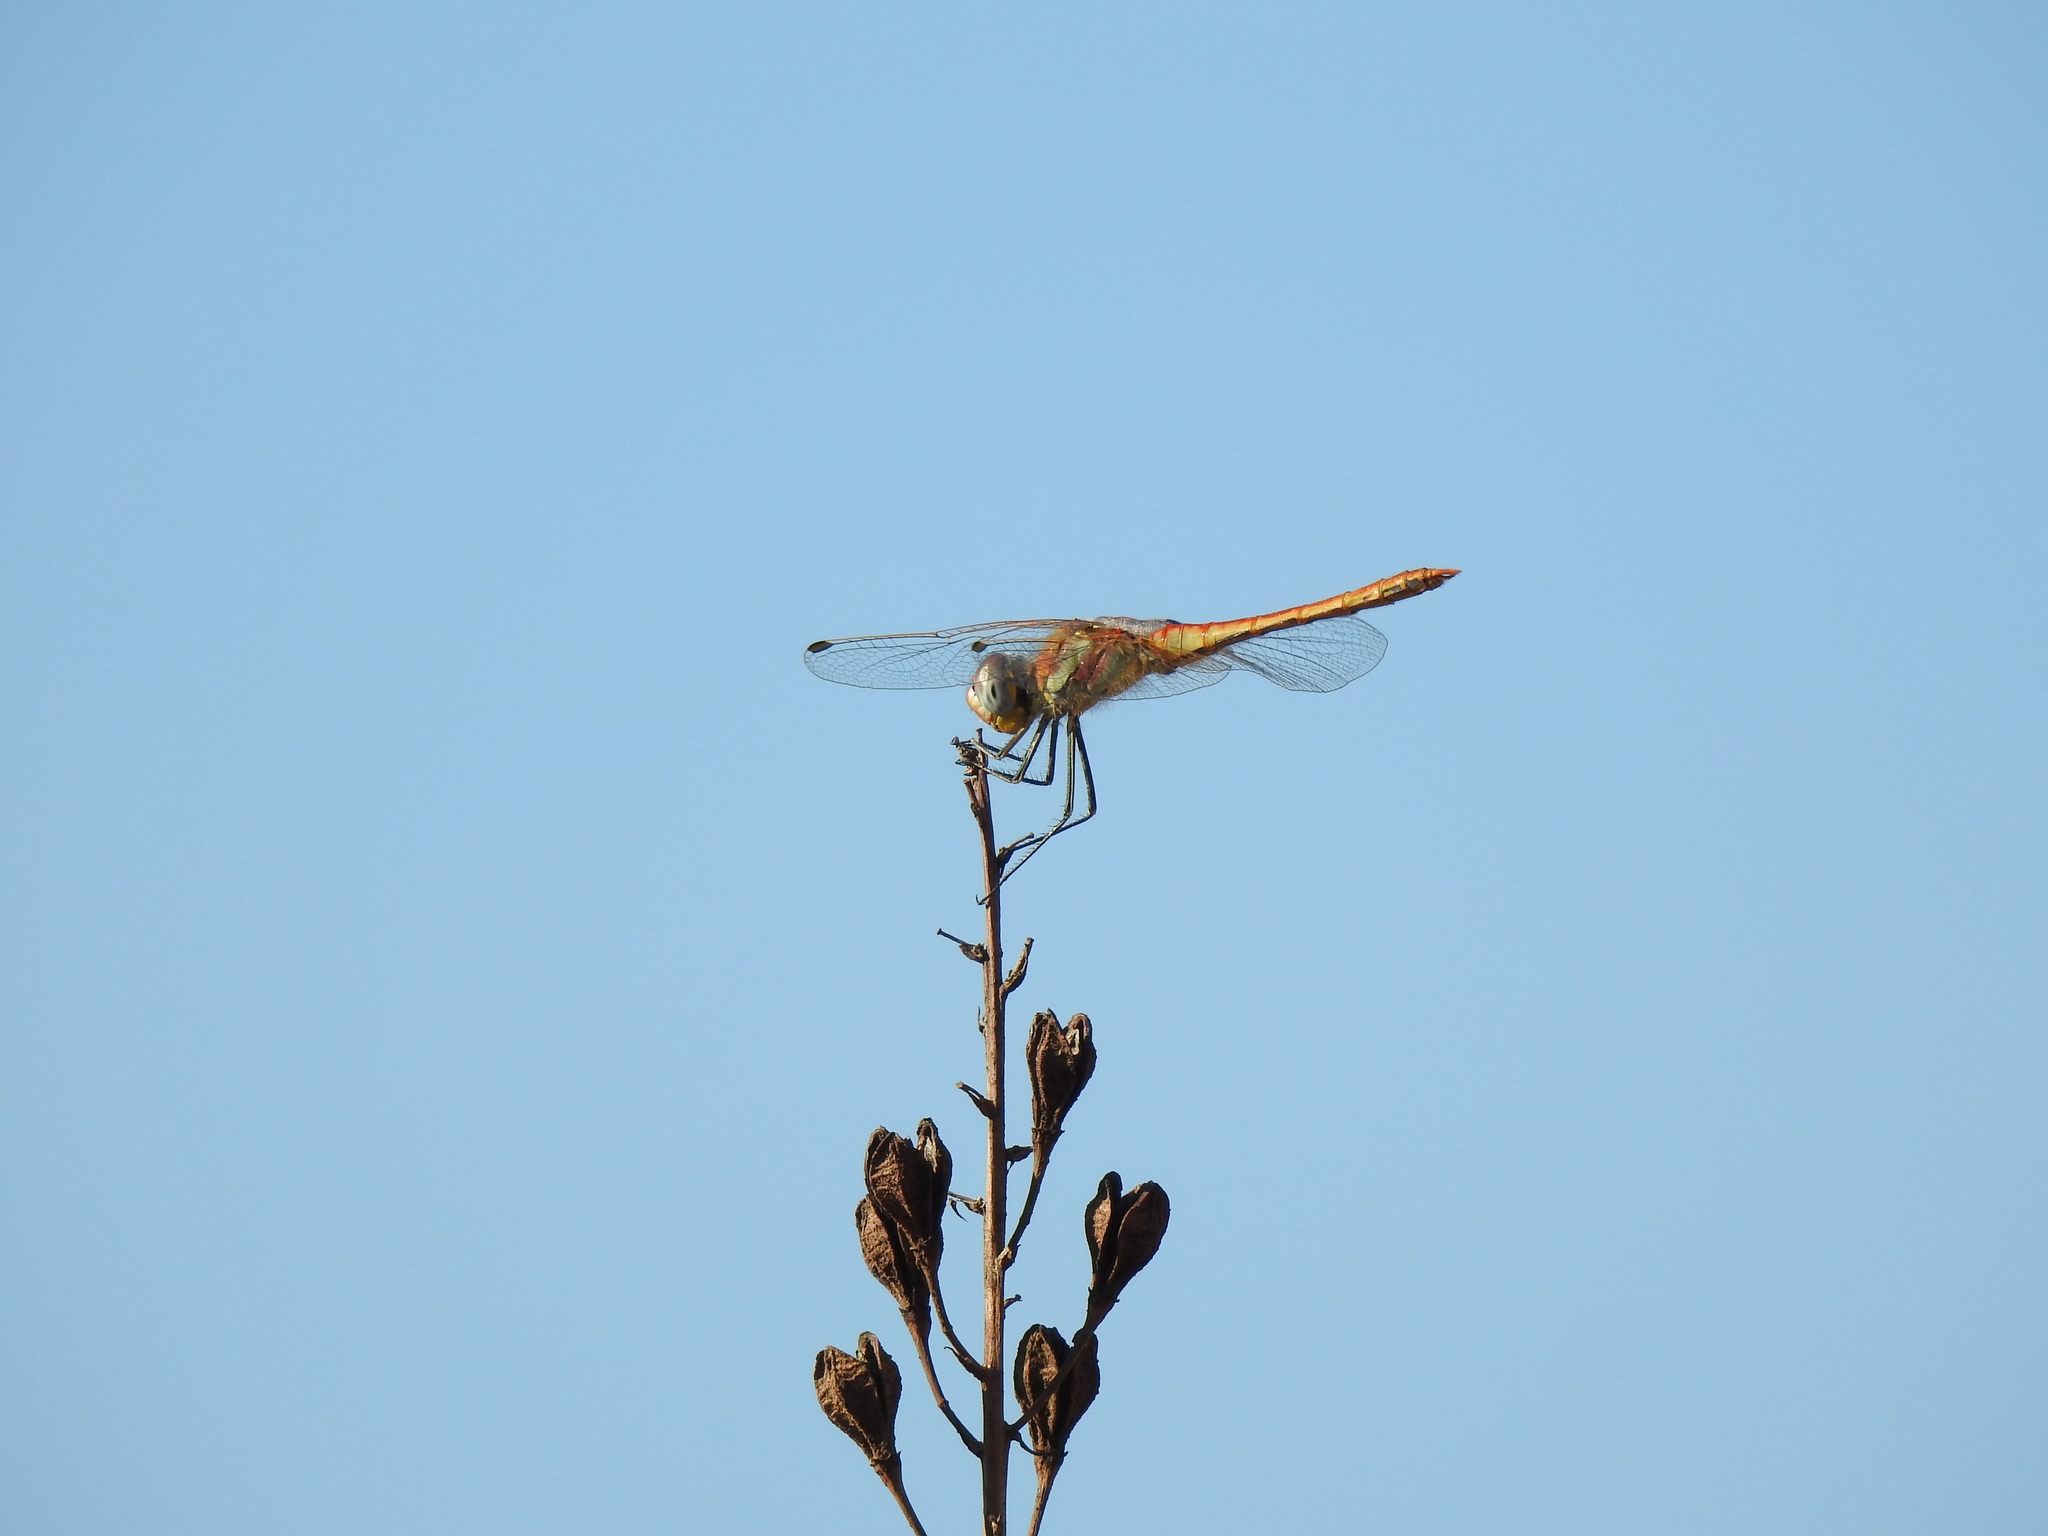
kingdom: Animalia
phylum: Arthropoda
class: Insecta
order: Odonata
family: Libellulidae
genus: Sympetrum
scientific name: Sympetrum fonscolombii
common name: Red-veined darter
